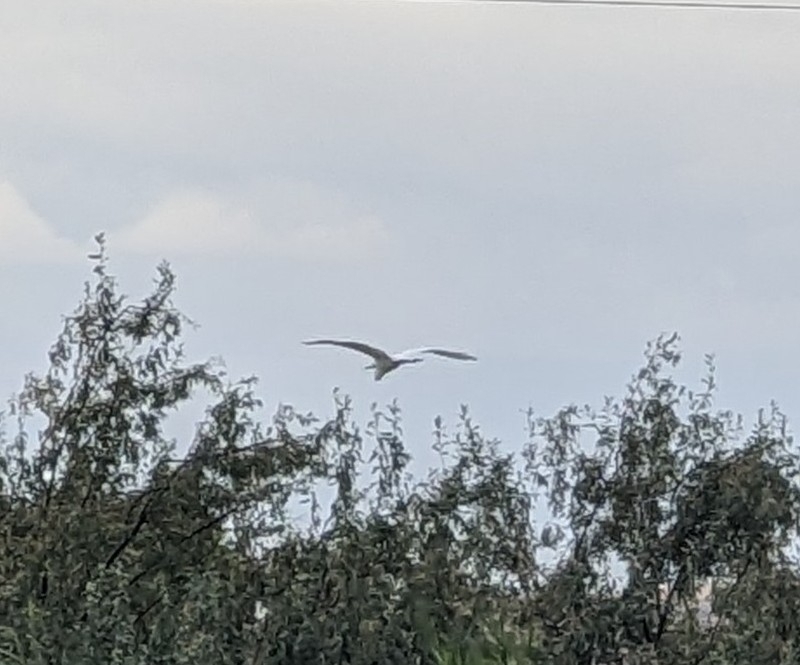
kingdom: Animalia
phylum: Chordata
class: Aves
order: Pelecaniformes
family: Ardeidae
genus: Ardea
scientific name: Ardea alba
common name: Great egret
